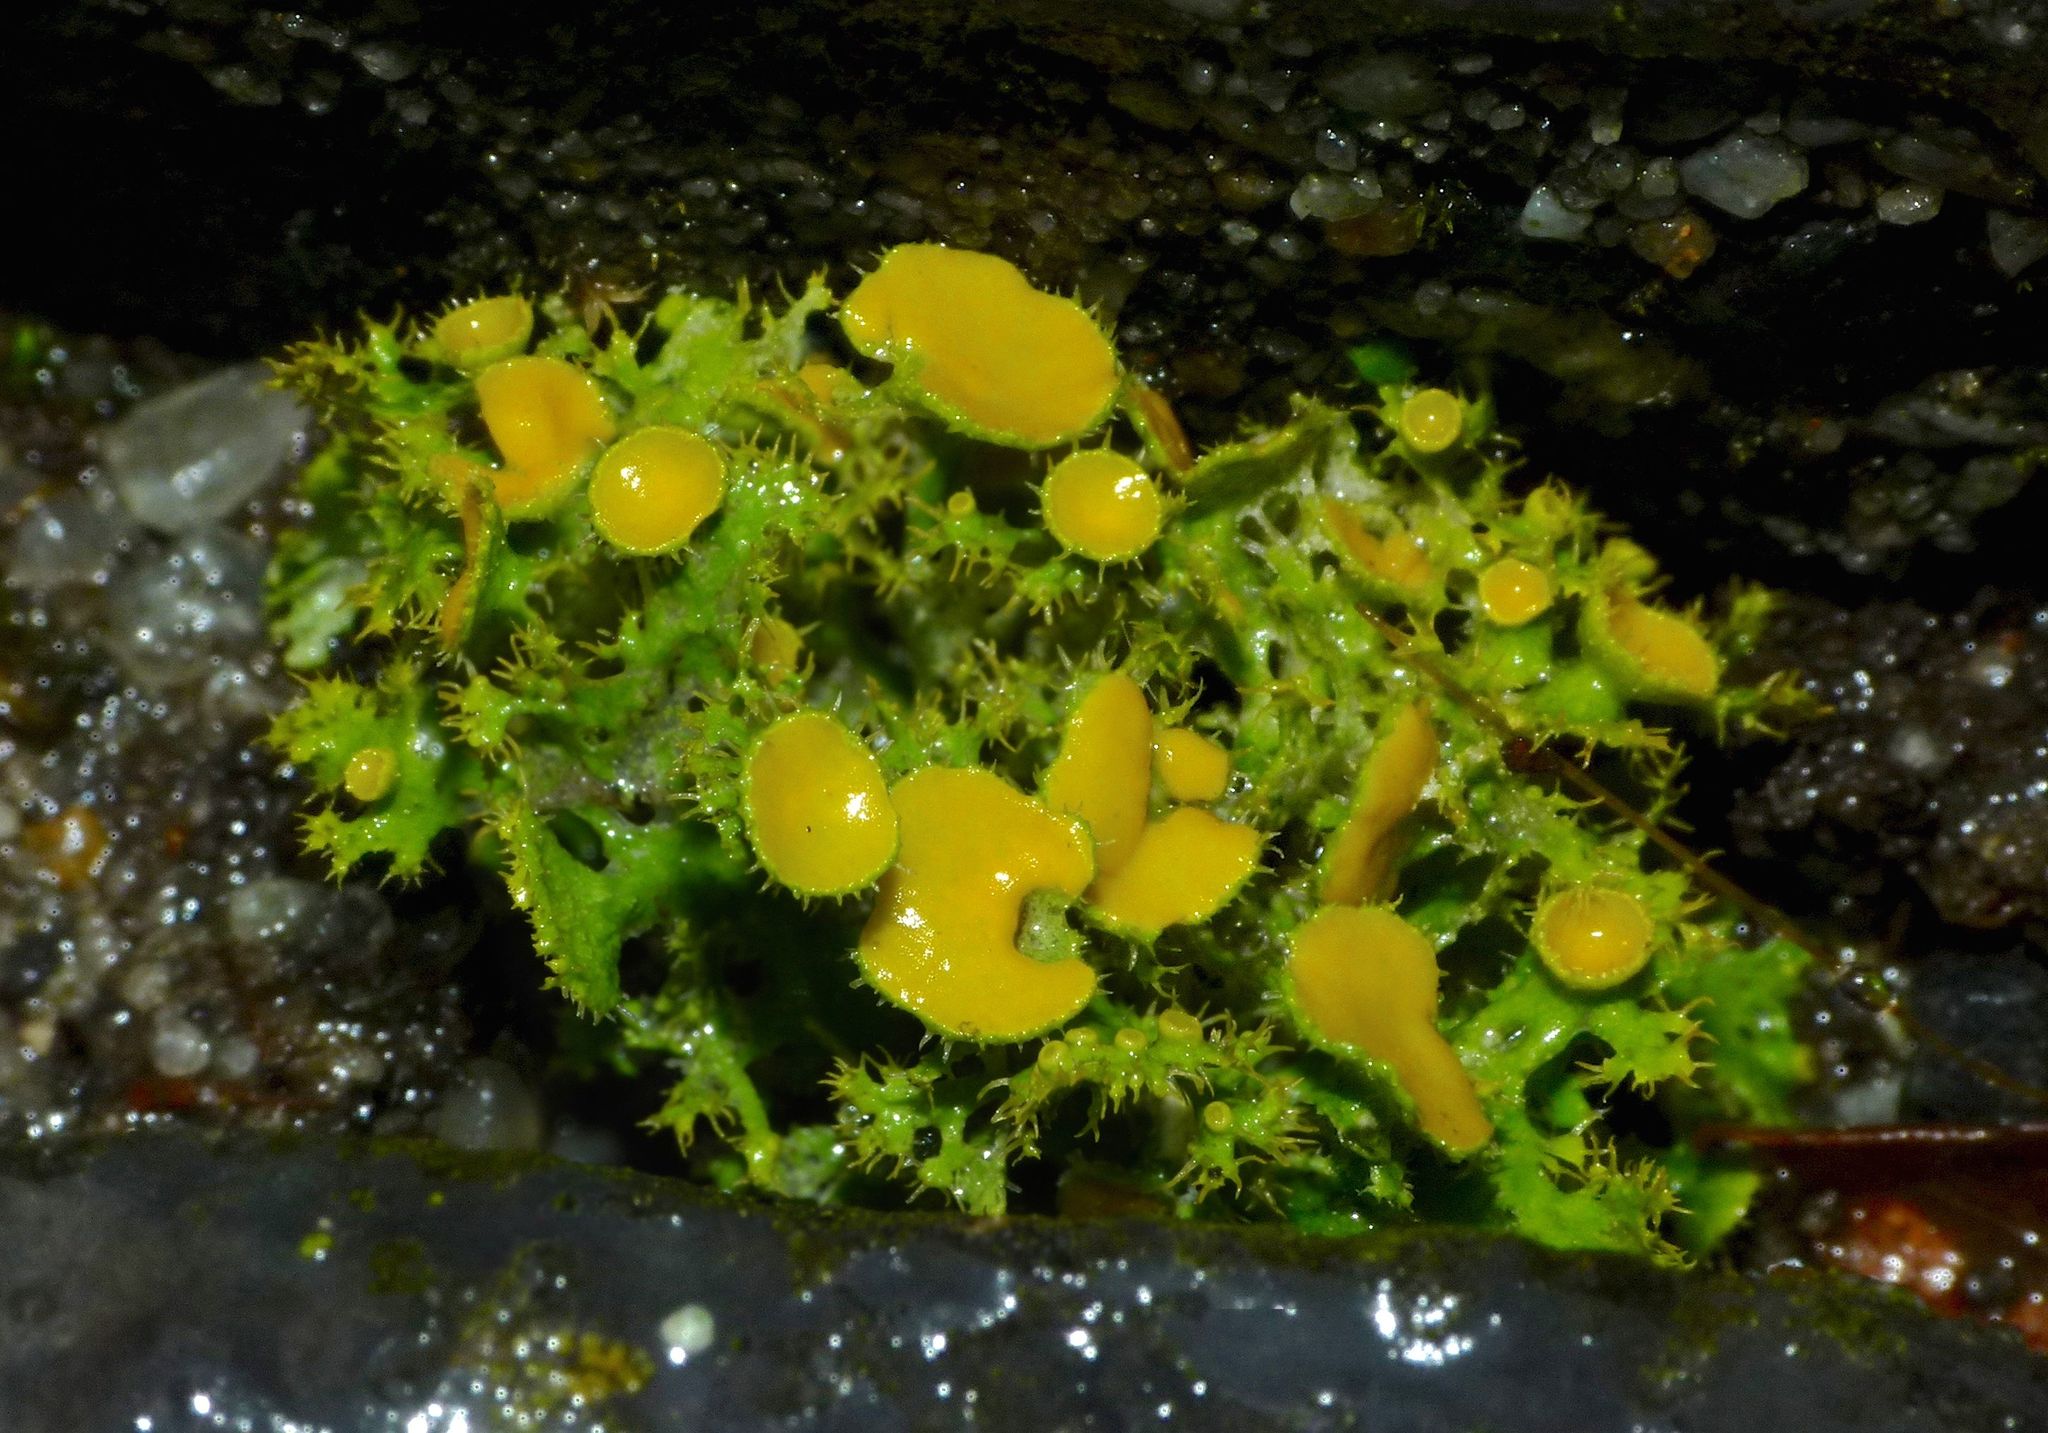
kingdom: Fungi
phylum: Ascomycota
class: Lecanoromycetes
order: Teloschistales
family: Teloschistaceae
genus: Niorma
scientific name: Niorma chrysophthalma
